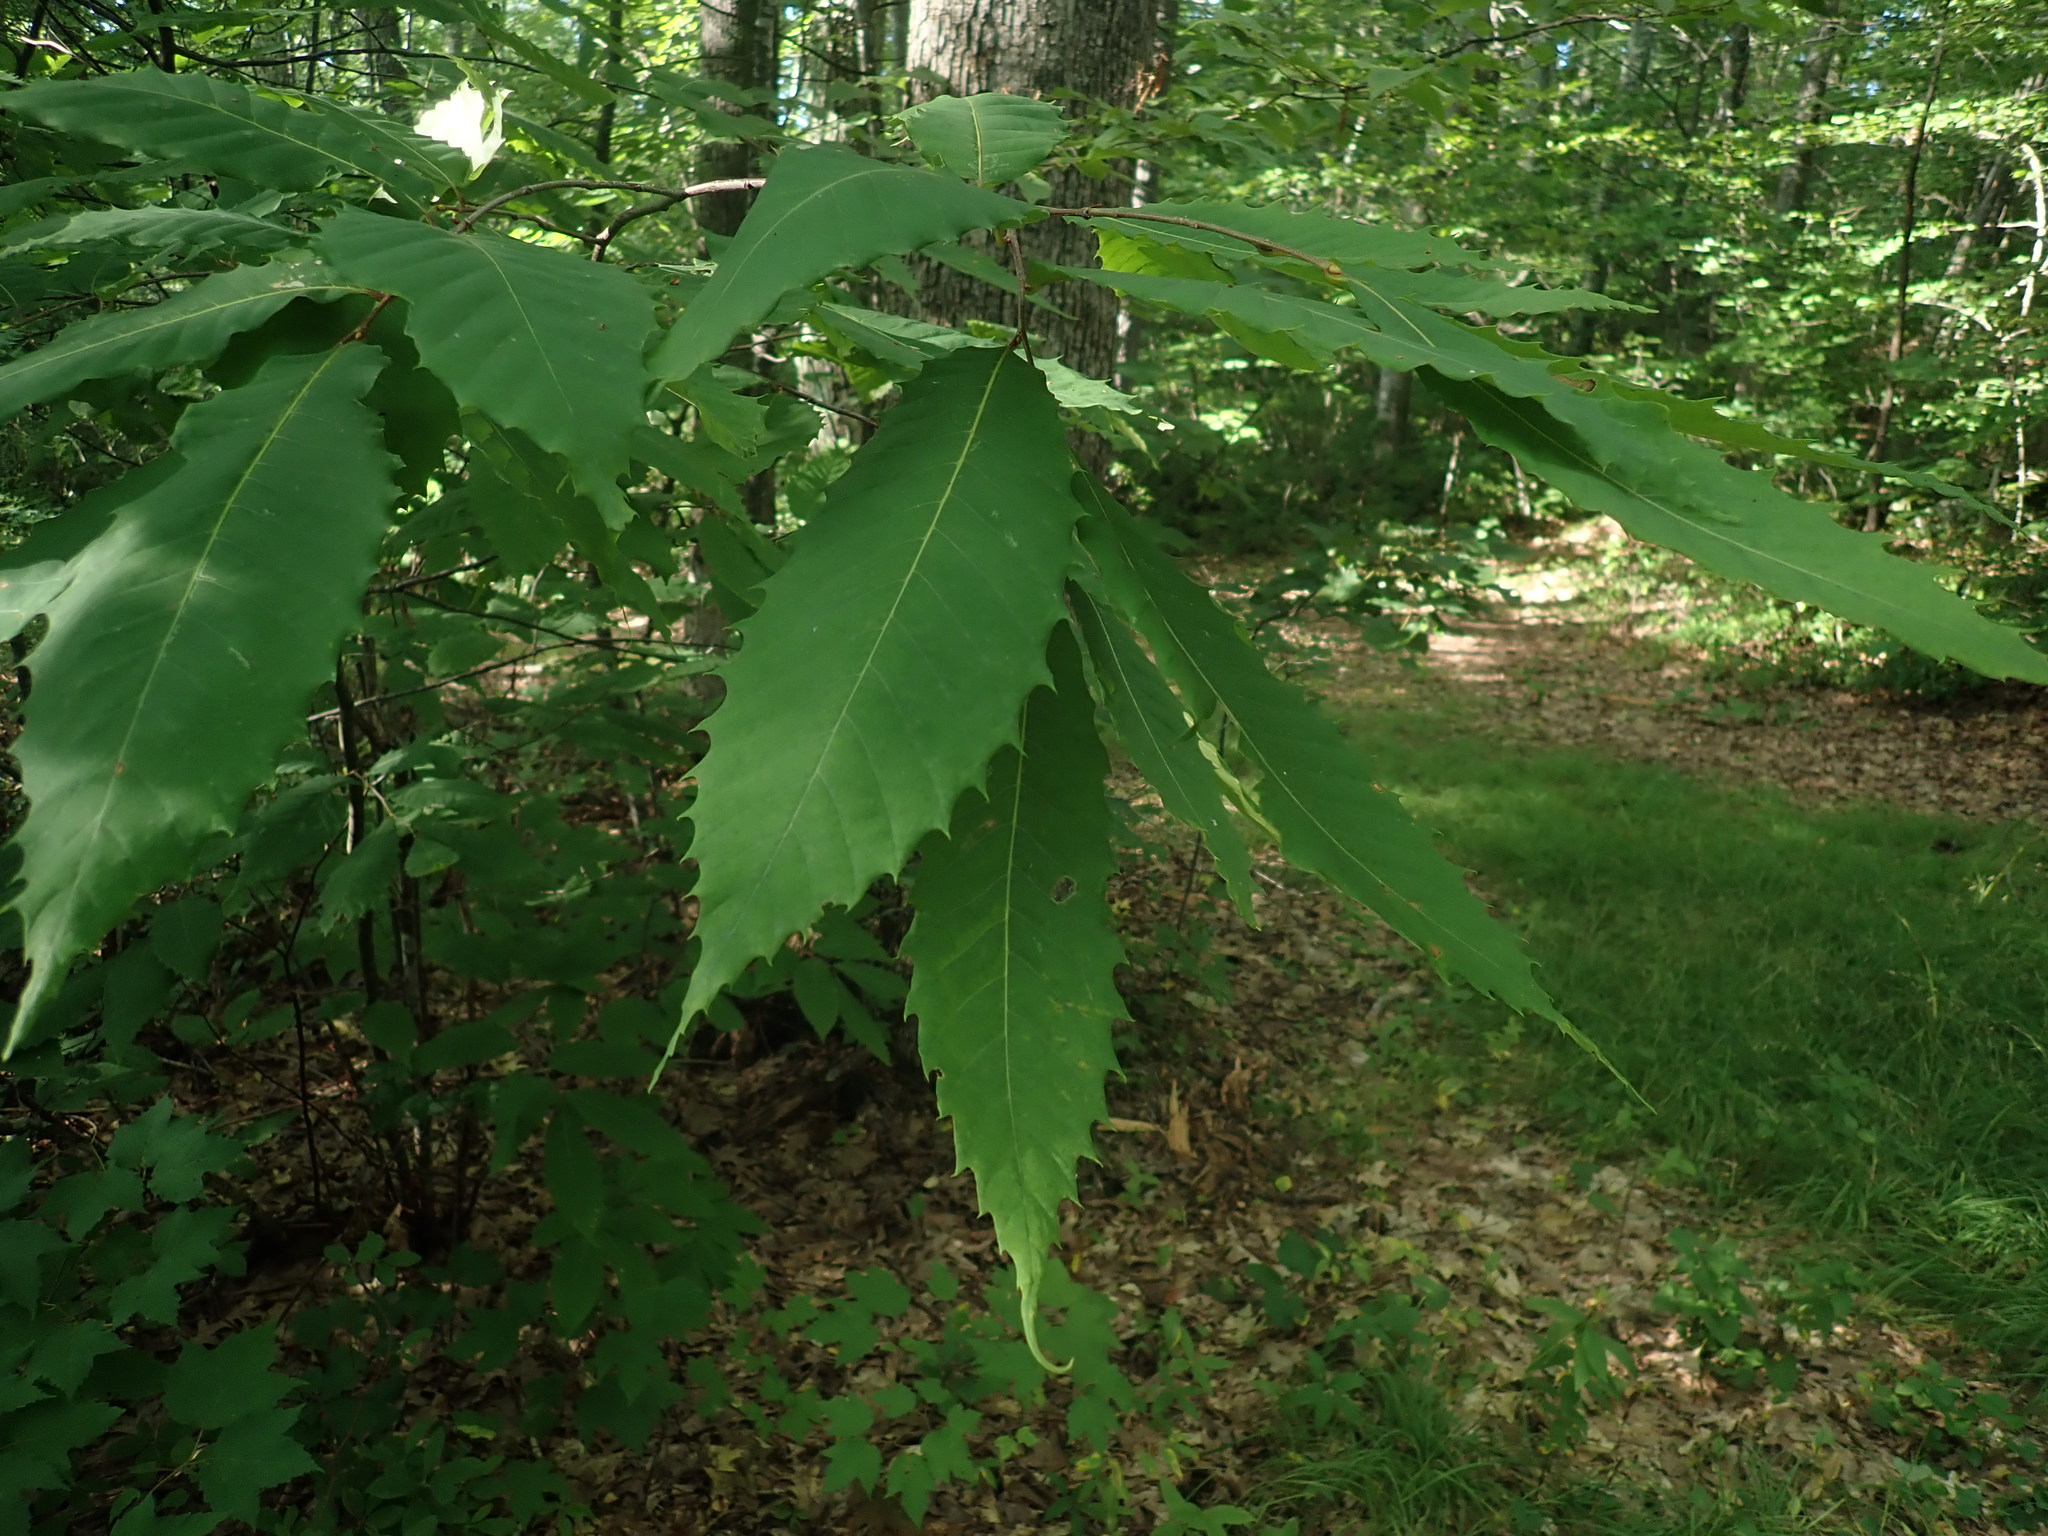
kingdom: Plantae
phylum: Tracheophyta
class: Magnoliopsida
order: Fagales
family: Fagaceae
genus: Castanea
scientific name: Castanea dentata
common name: American chestnut
